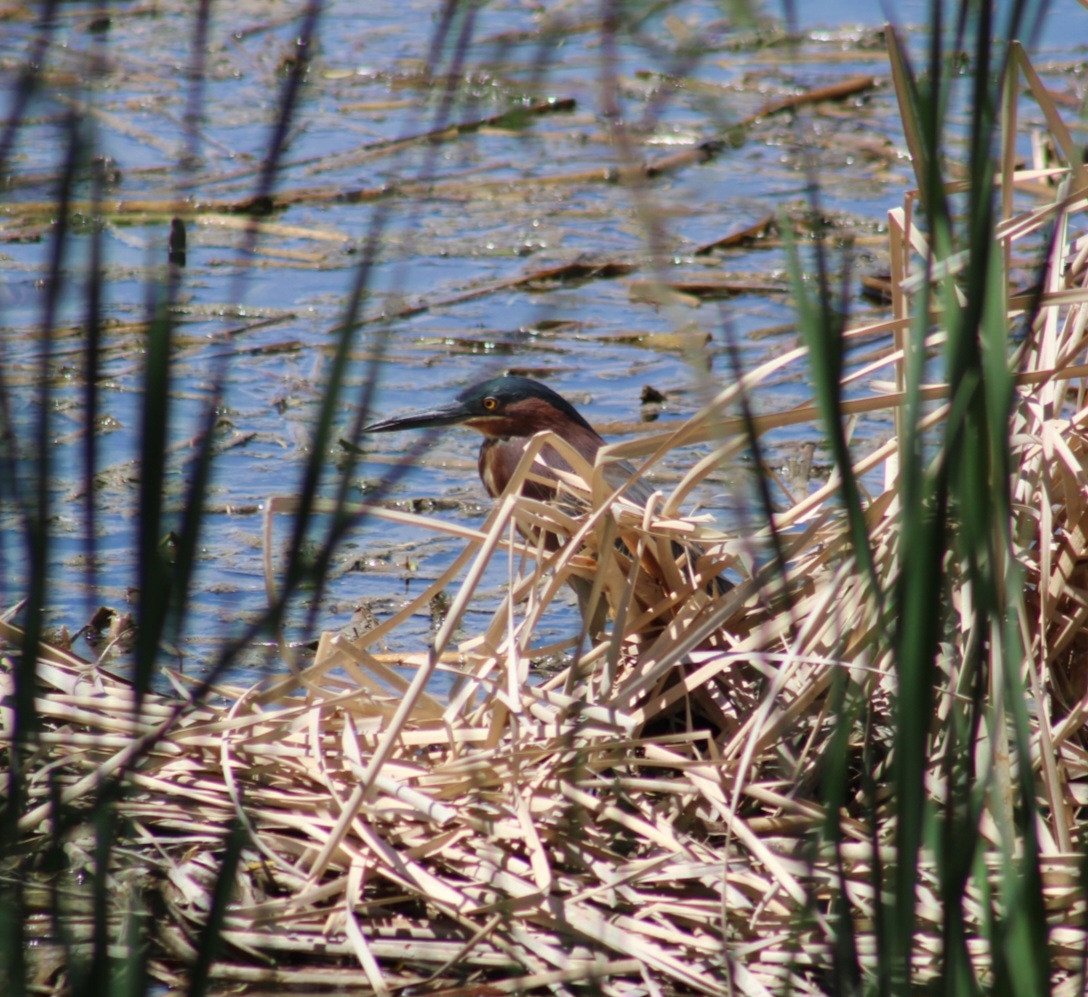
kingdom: Animalia
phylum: Chordata
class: Aves
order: Pelecaniformes
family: Ardeidae
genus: Butorides
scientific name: Butorides virescens
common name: Green heron
